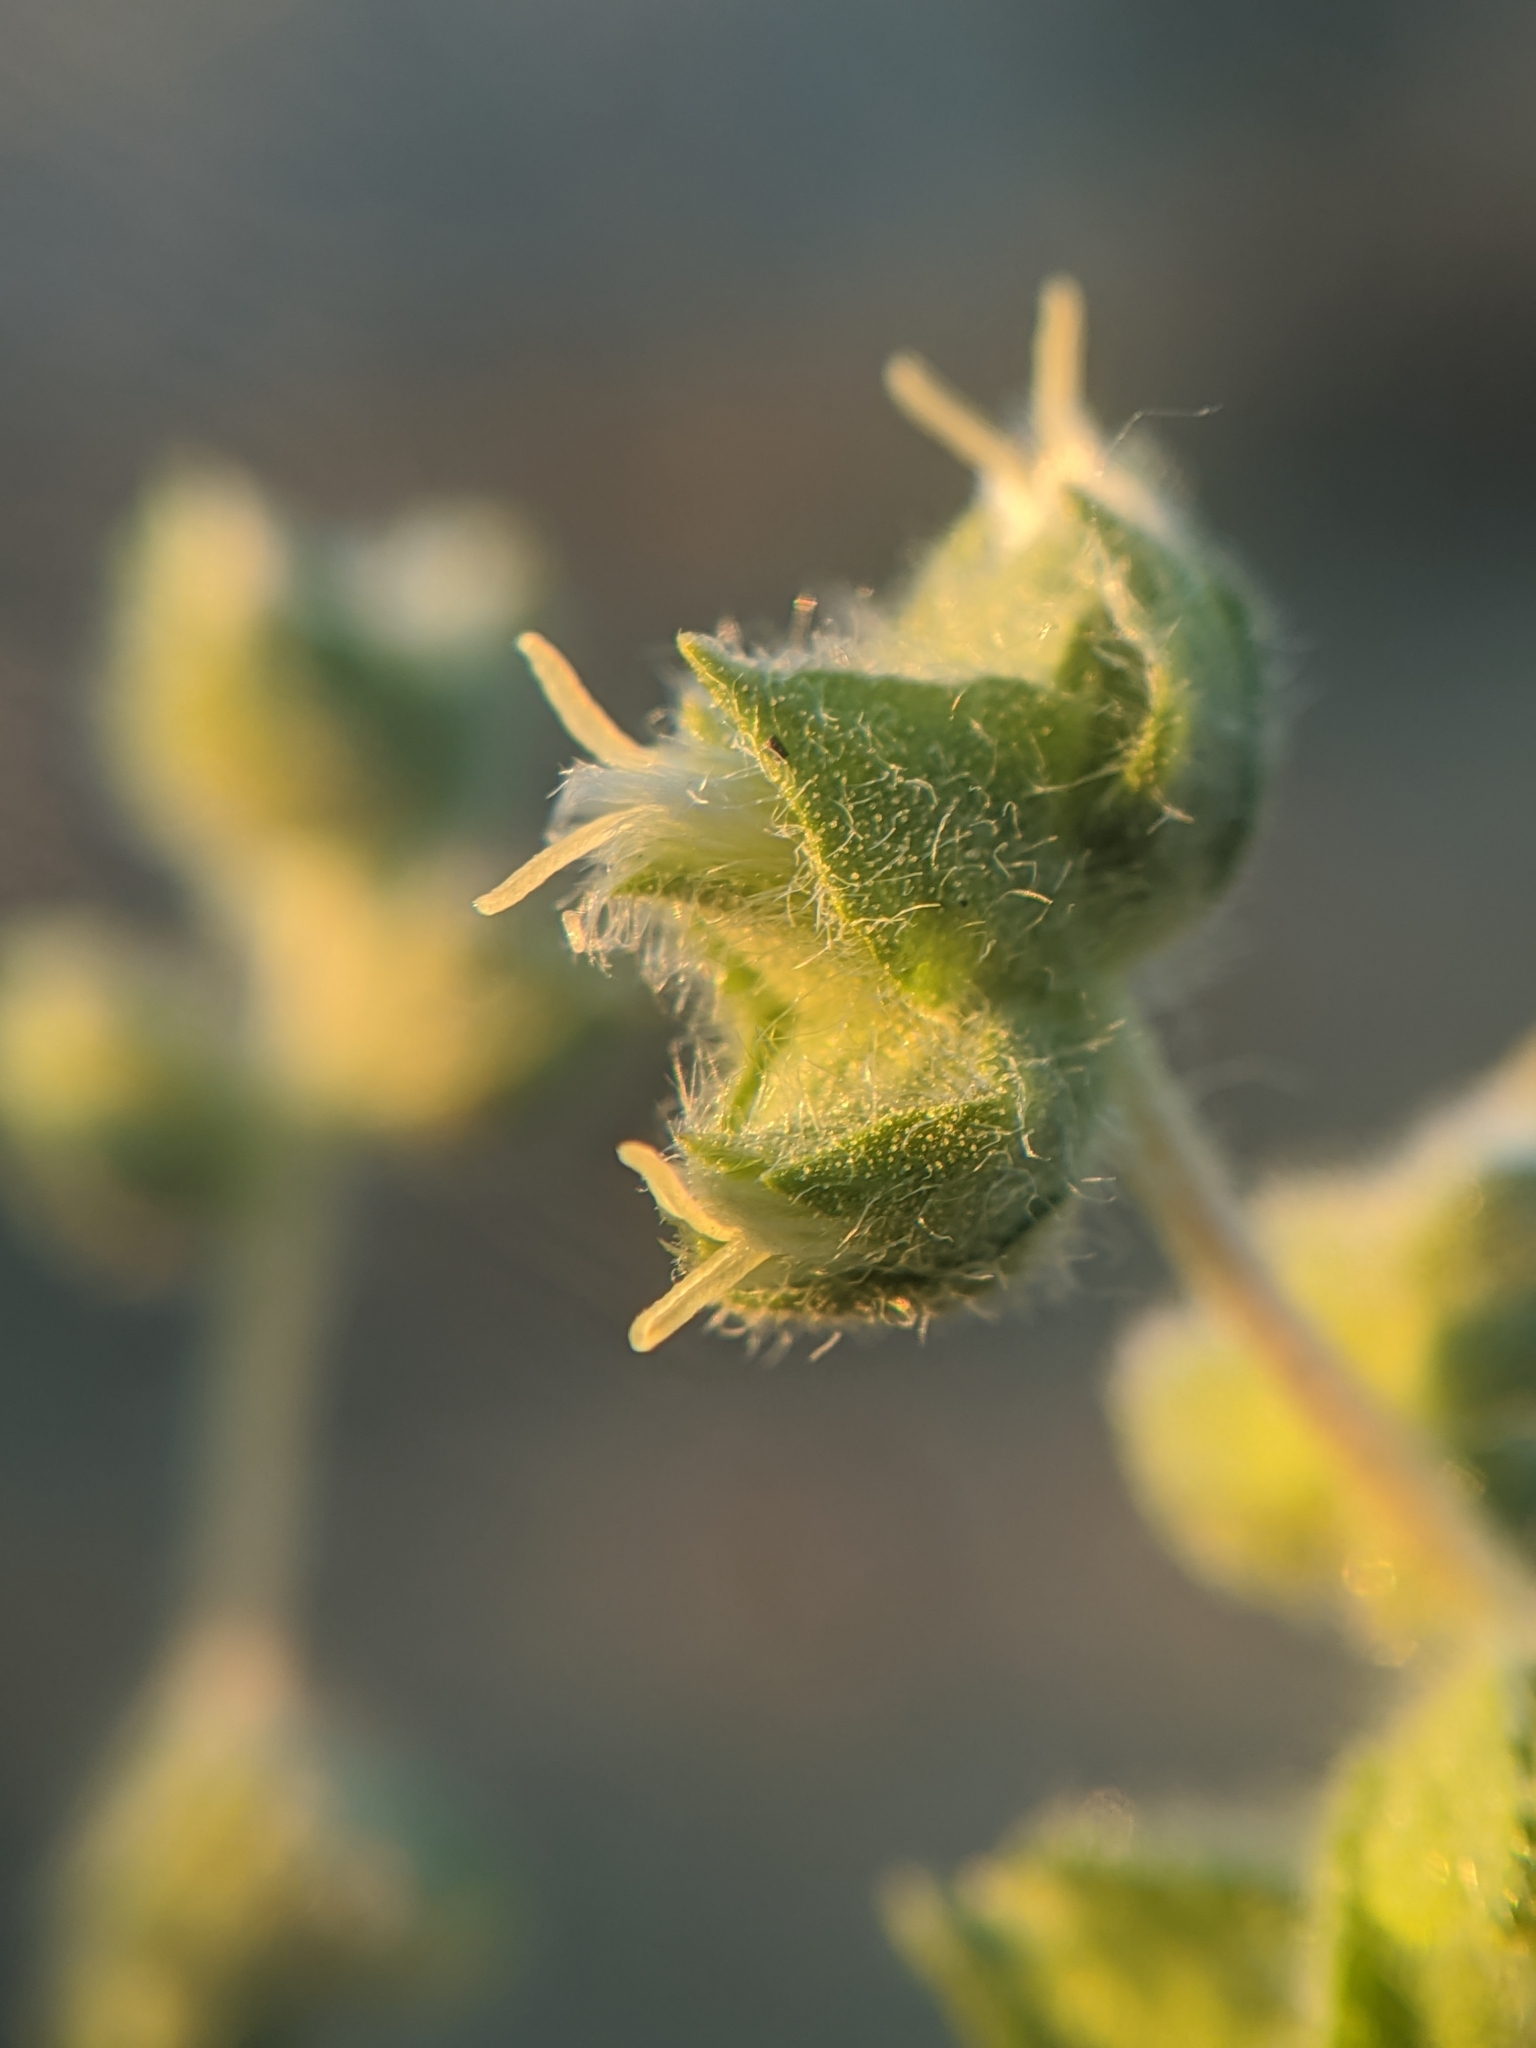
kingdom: Plantae
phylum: Tracheophyta
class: Magnoliopsida
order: Asterales
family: Asteraceae
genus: Ambrosia
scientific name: Ambrosia eriocentra
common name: Woolly bur-sage
